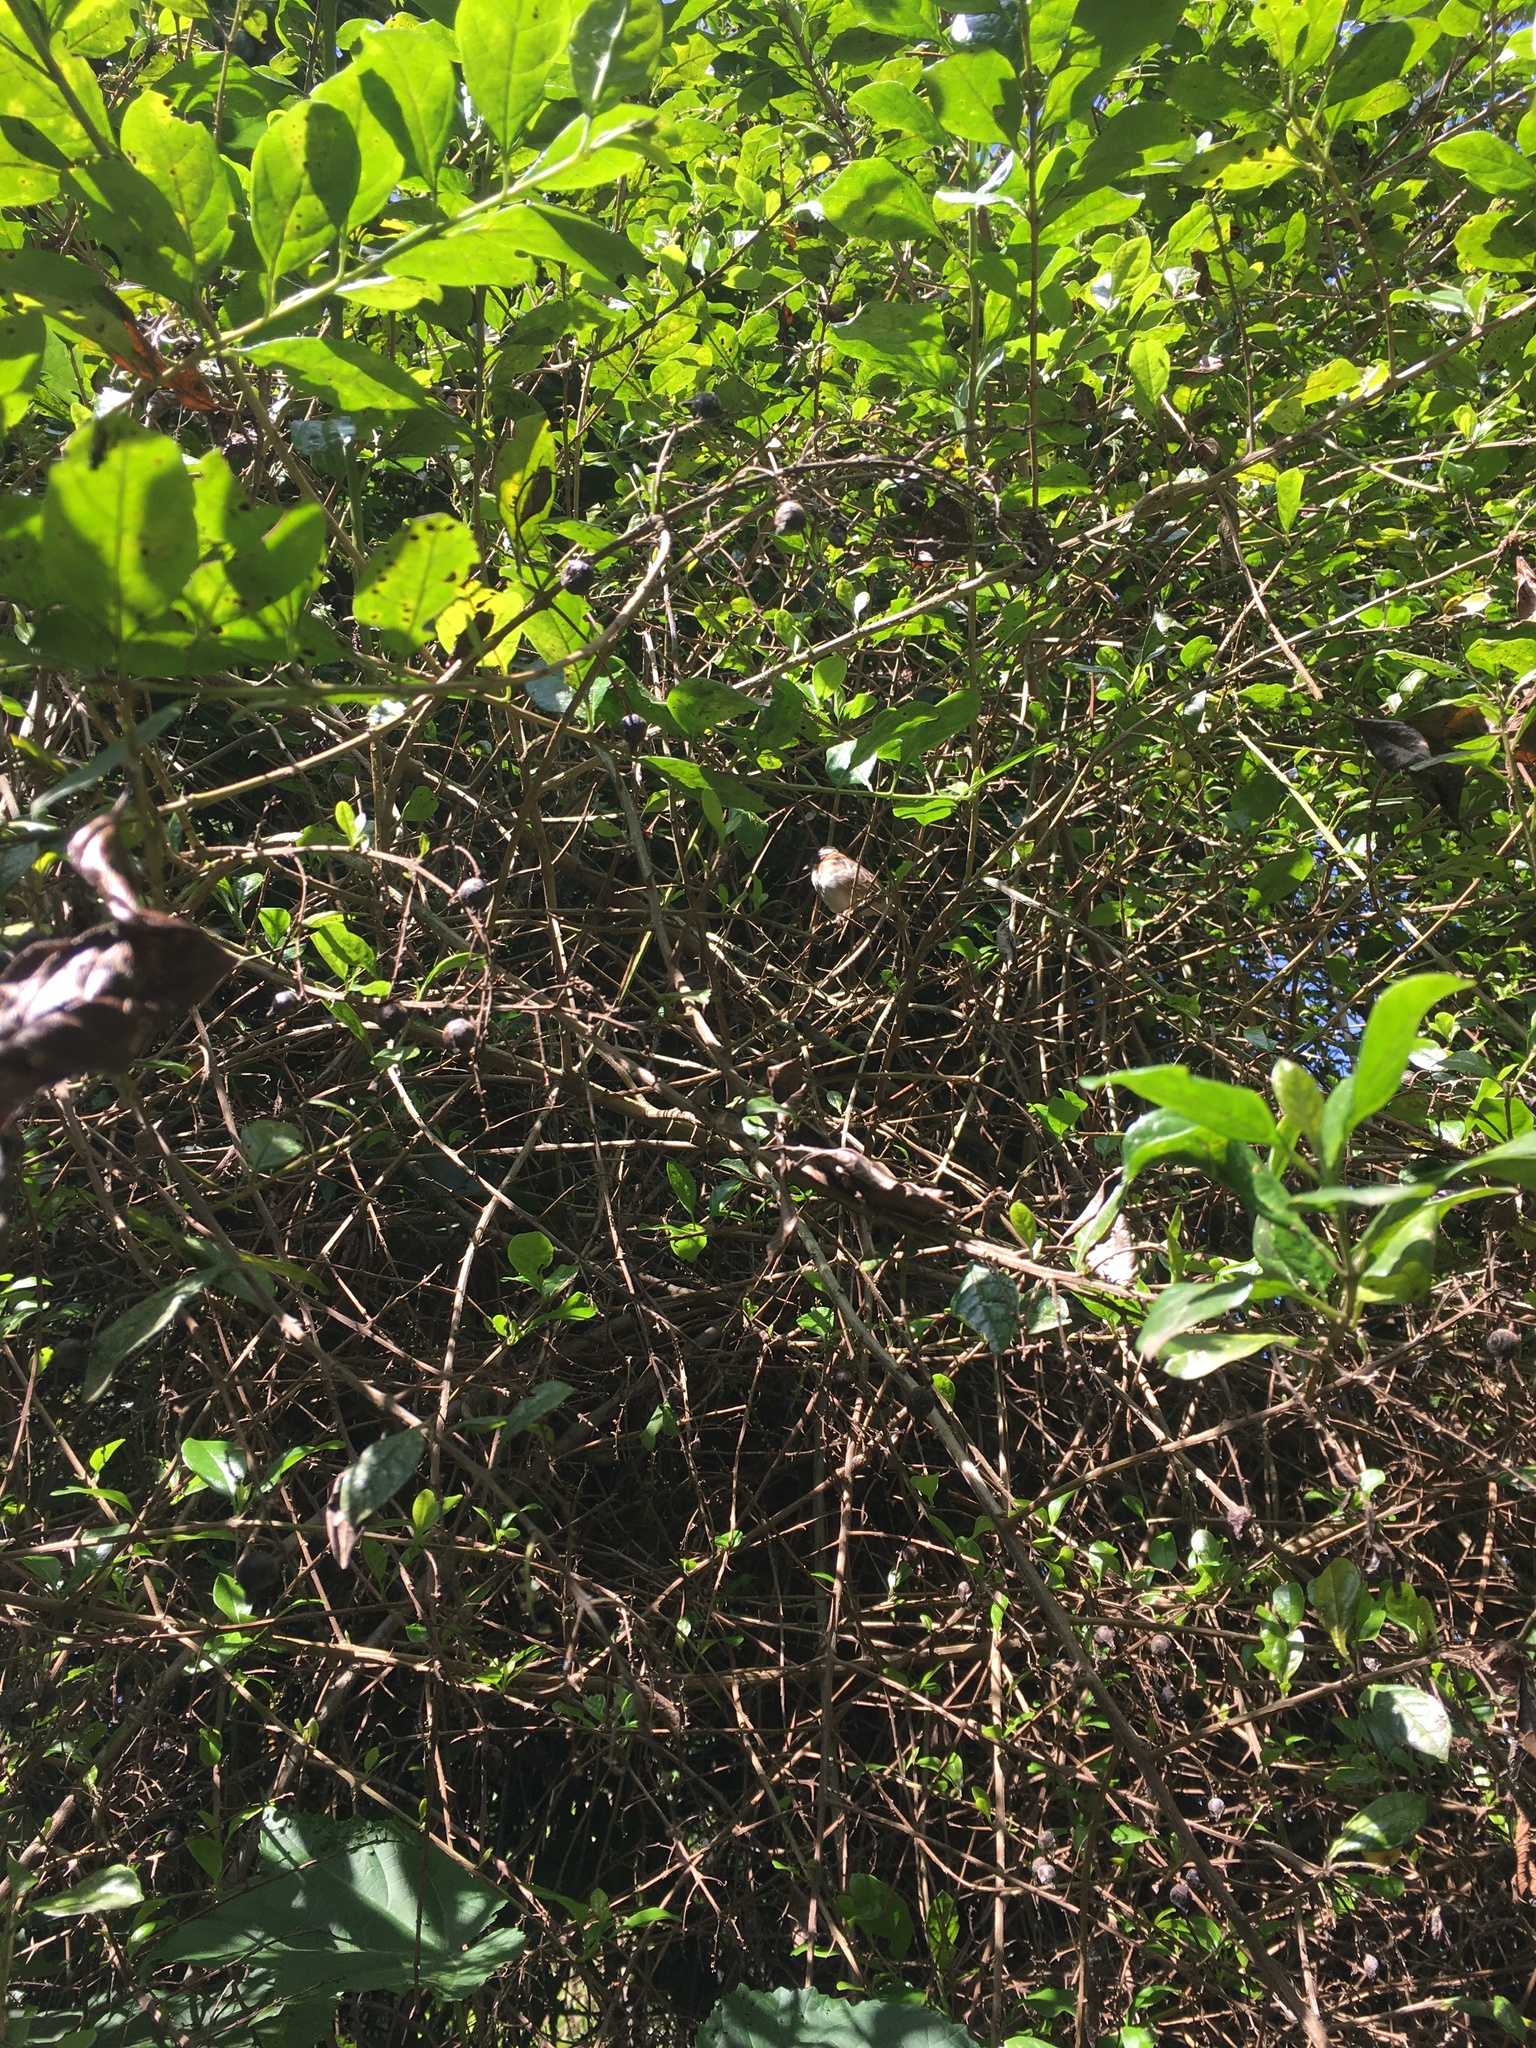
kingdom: Animalia
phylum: Chordata
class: Aves
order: Passeriformes
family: Passerellidae
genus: Zonotrichia
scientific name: Zonotrichia capensis
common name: Rufous-collared sparrow
